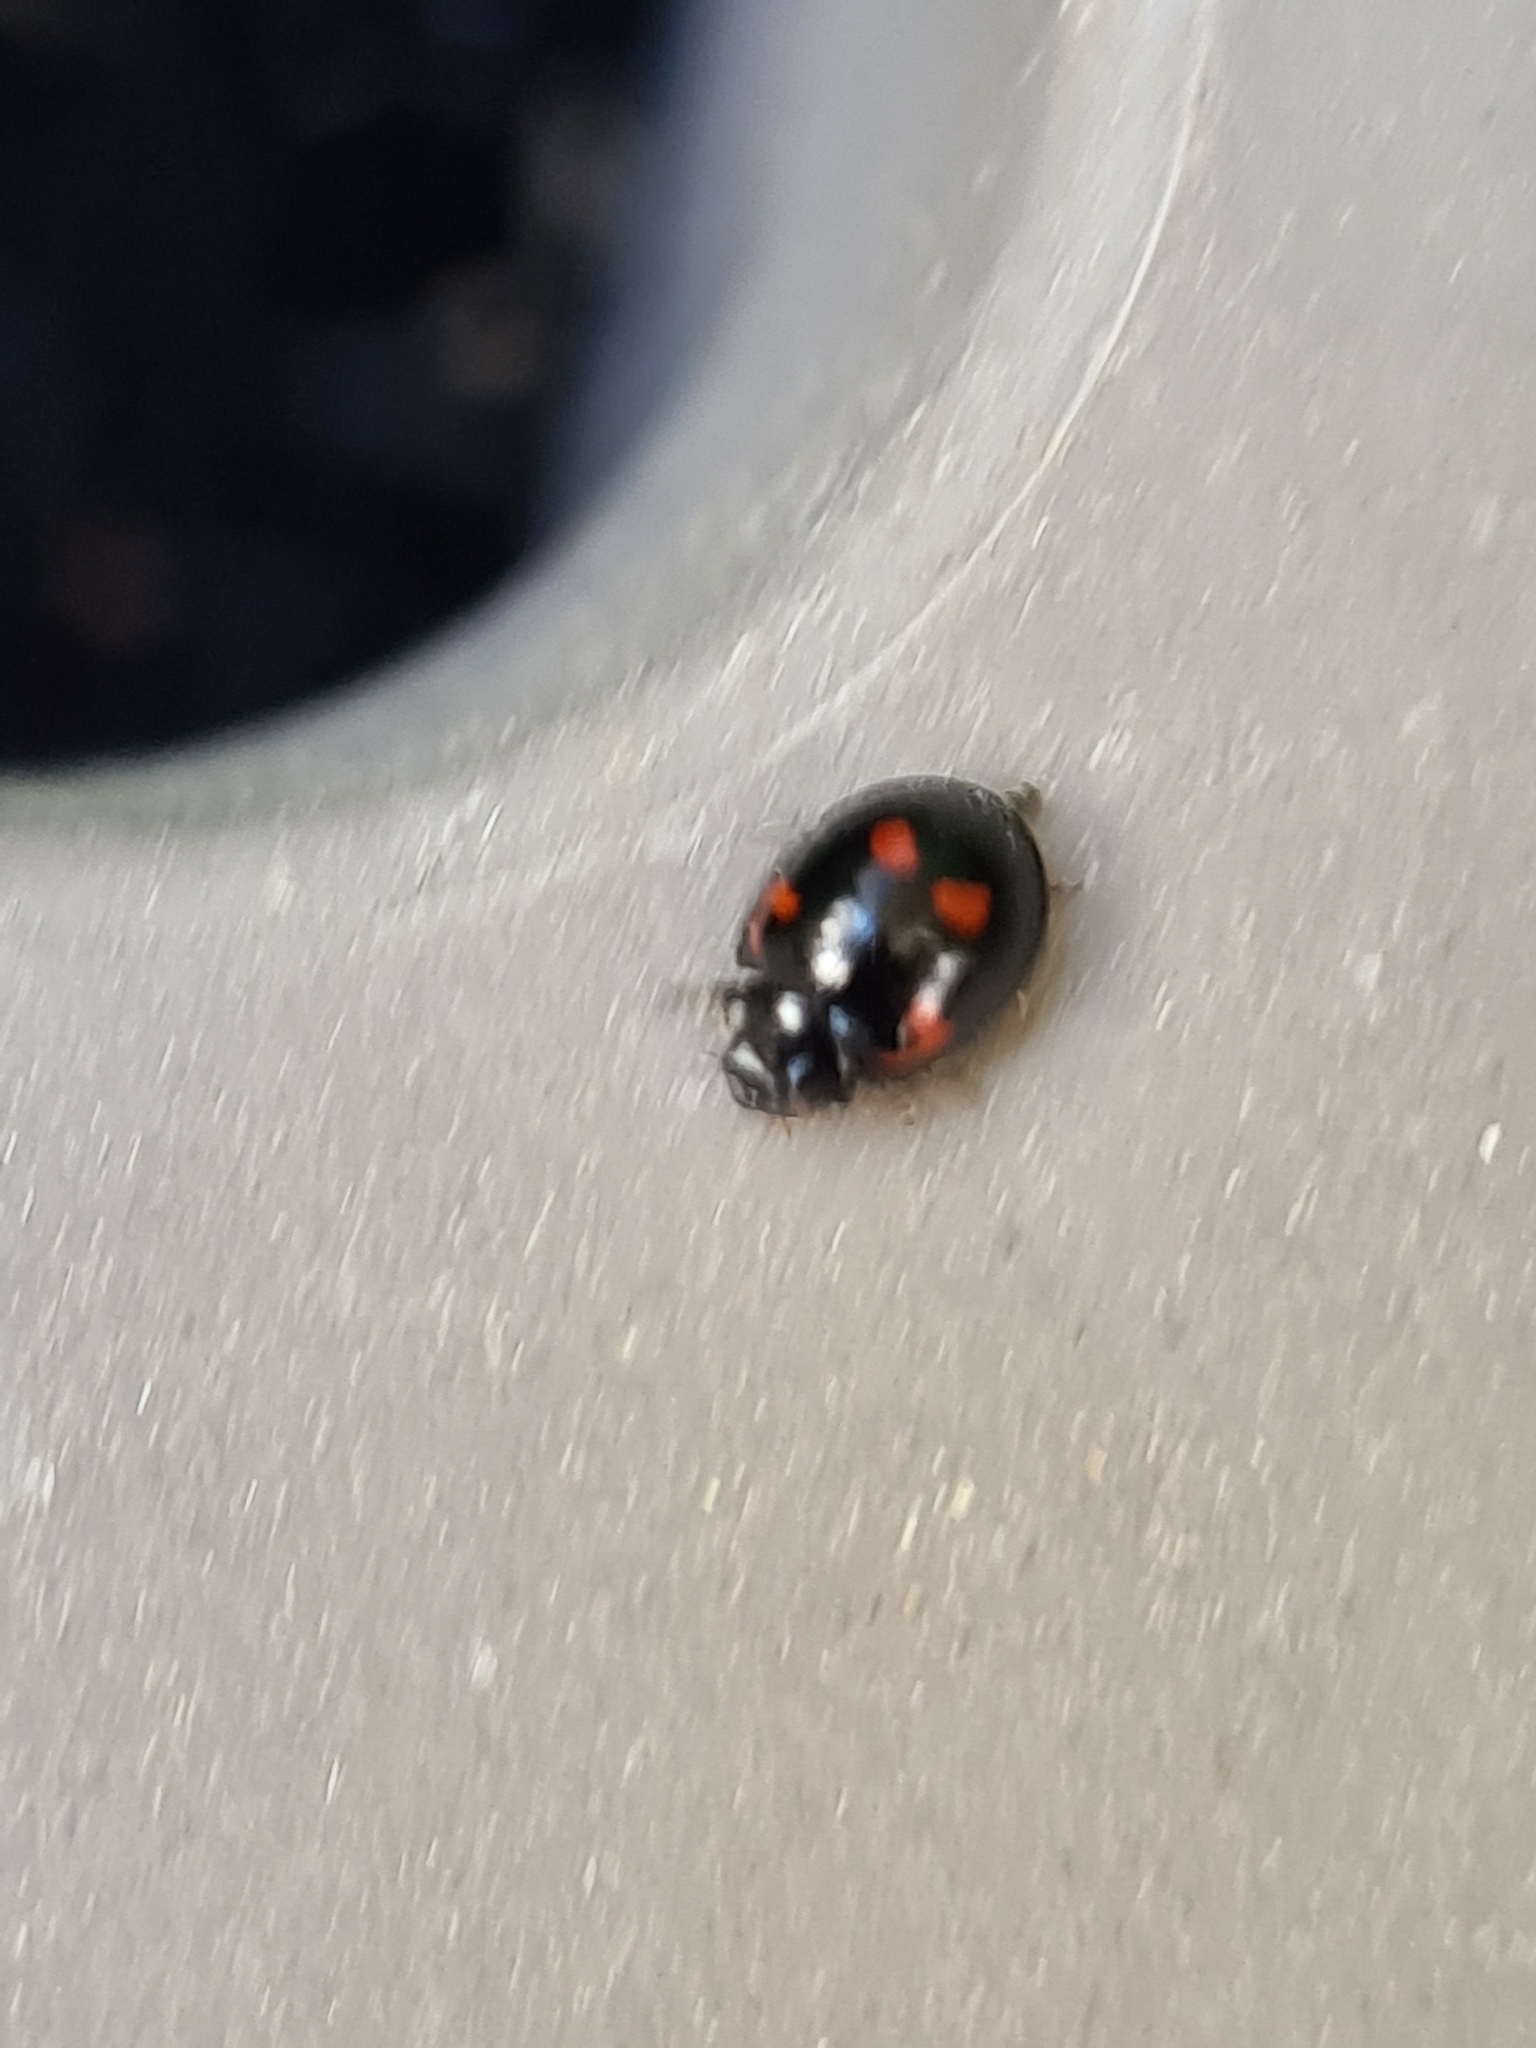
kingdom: Animalia
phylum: Arthropoda
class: Insecta
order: Coleoptera
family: Coccinellidae
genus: Brumus
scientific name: Brumus quadripustulatus
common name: Ladybird beetle
